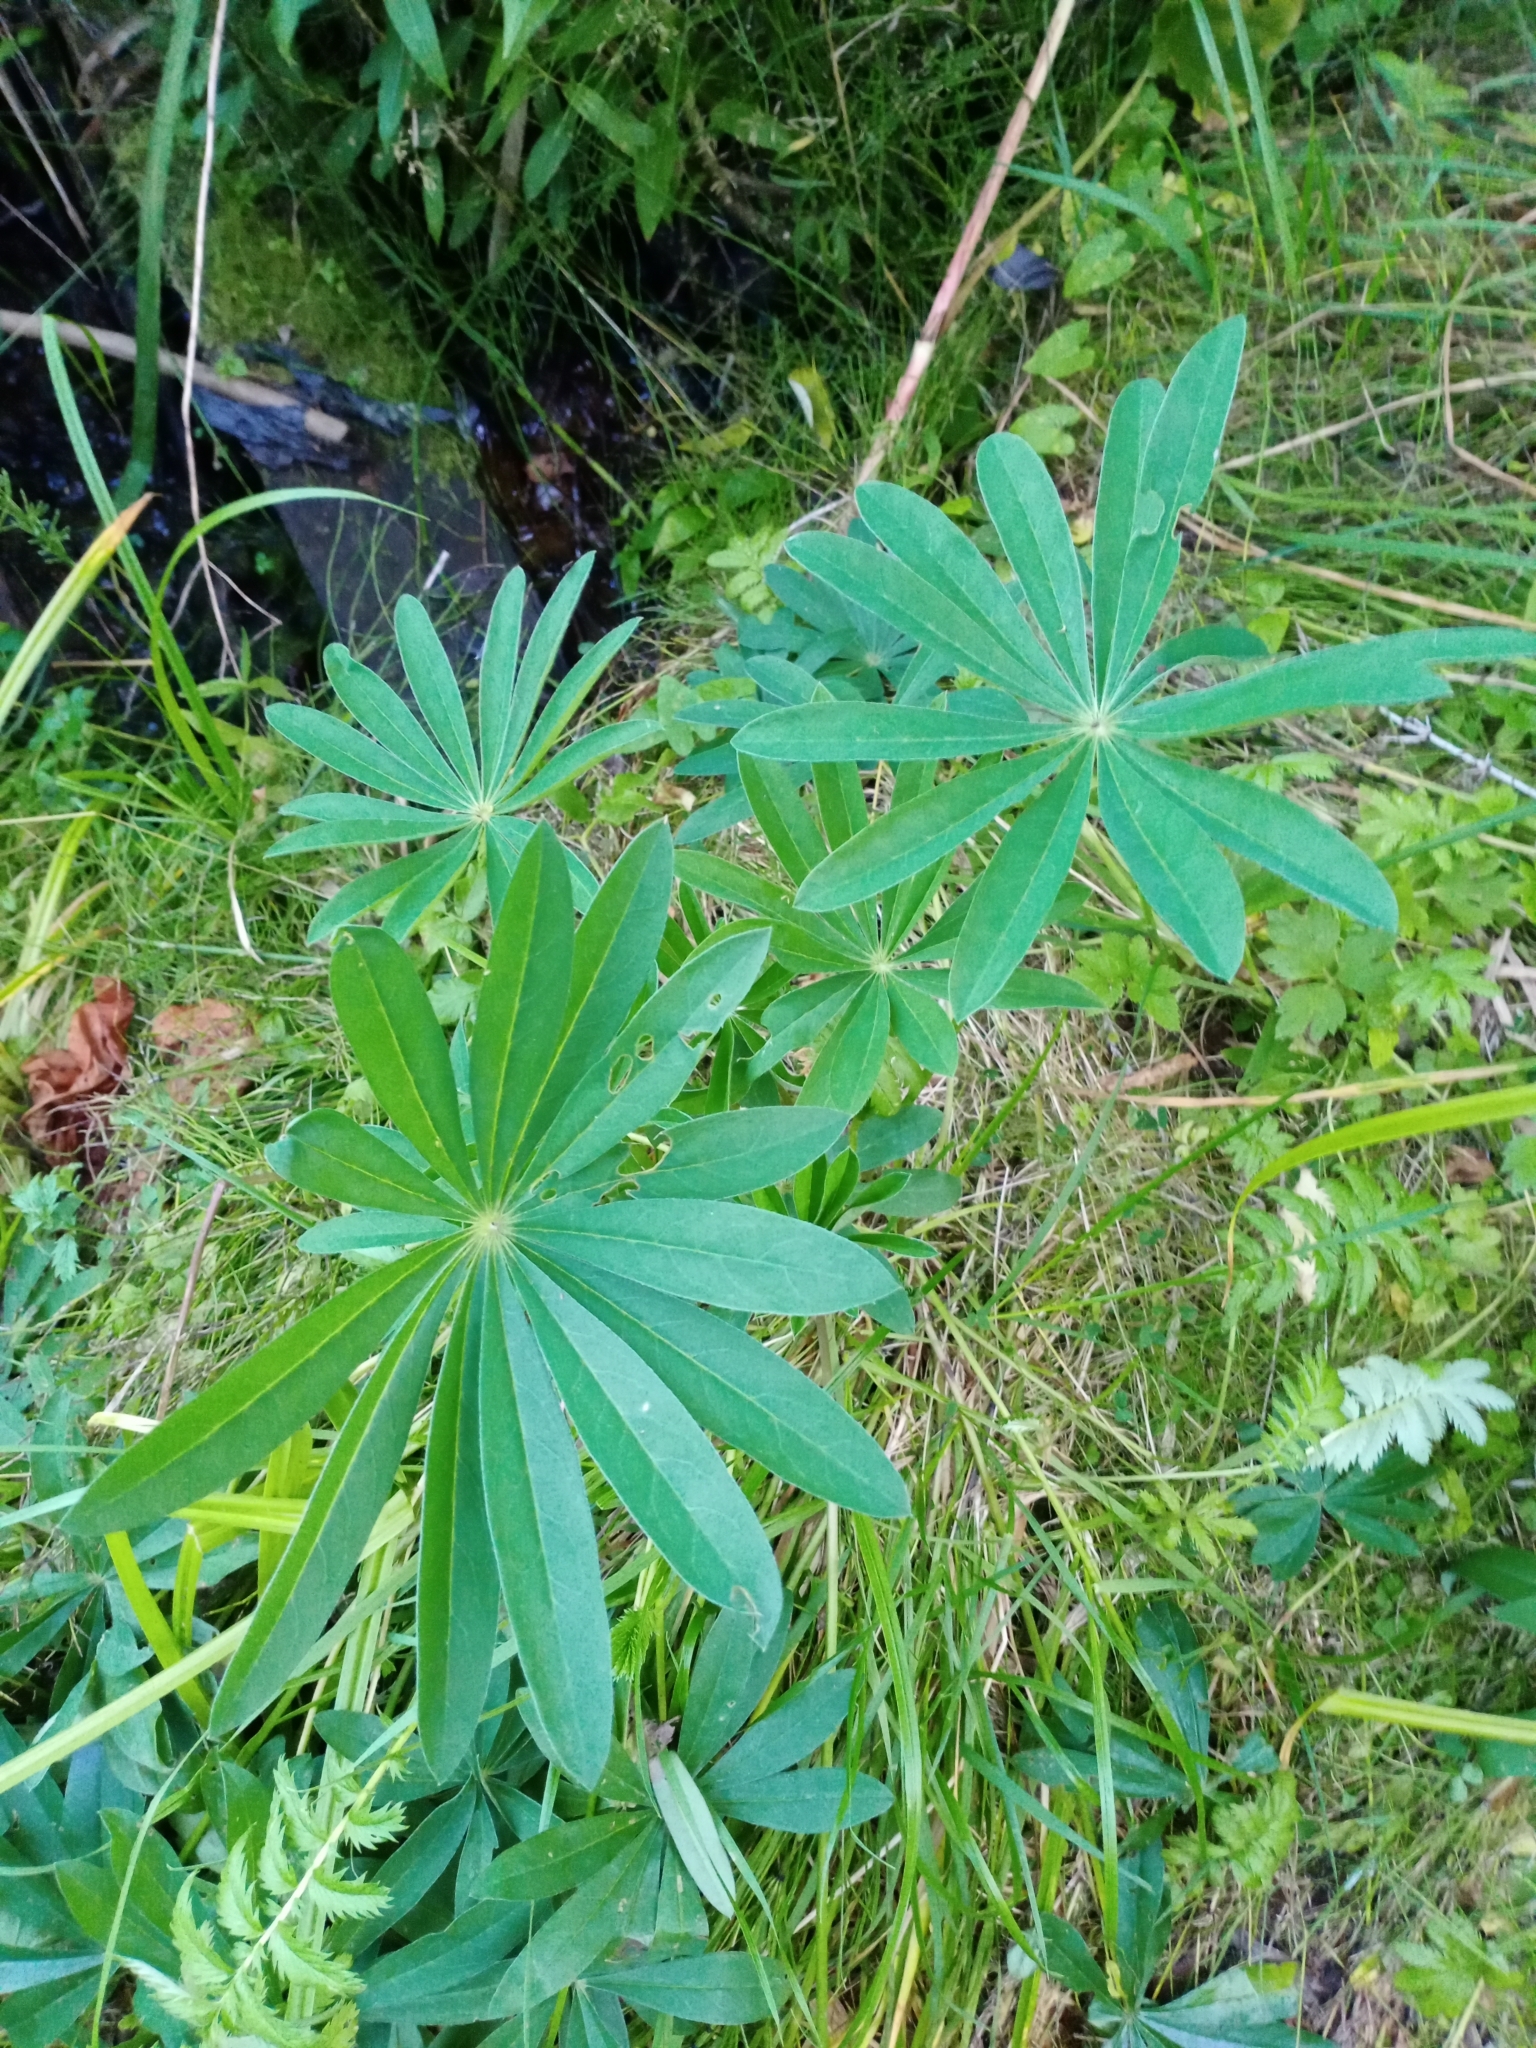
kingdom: Plantae
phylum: Tracheophyta
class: Magnoliopsida
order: Fabales
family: Fabaceae
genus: Lupinus
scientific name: Lupinus polyphyllus
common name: Garden lupin
